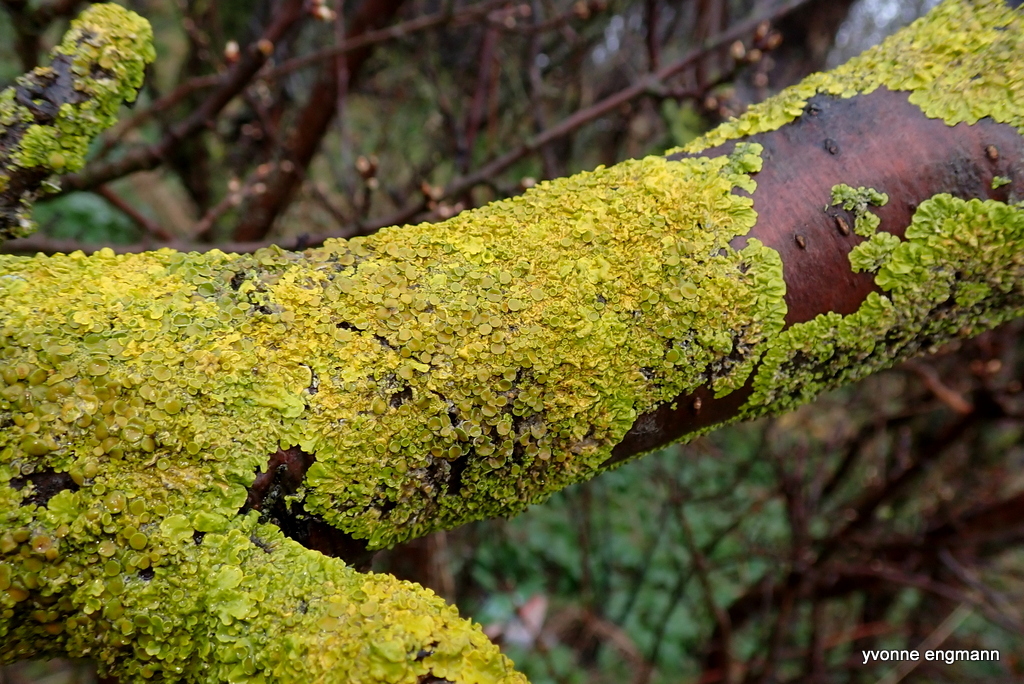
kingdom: Fungi
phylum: Ascomycota
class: Lecanoromycetes
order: Teloschistales
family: Teloschistaceae
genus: Xanthoria
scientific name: Xanthoria parietina
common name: Common orange lichen
